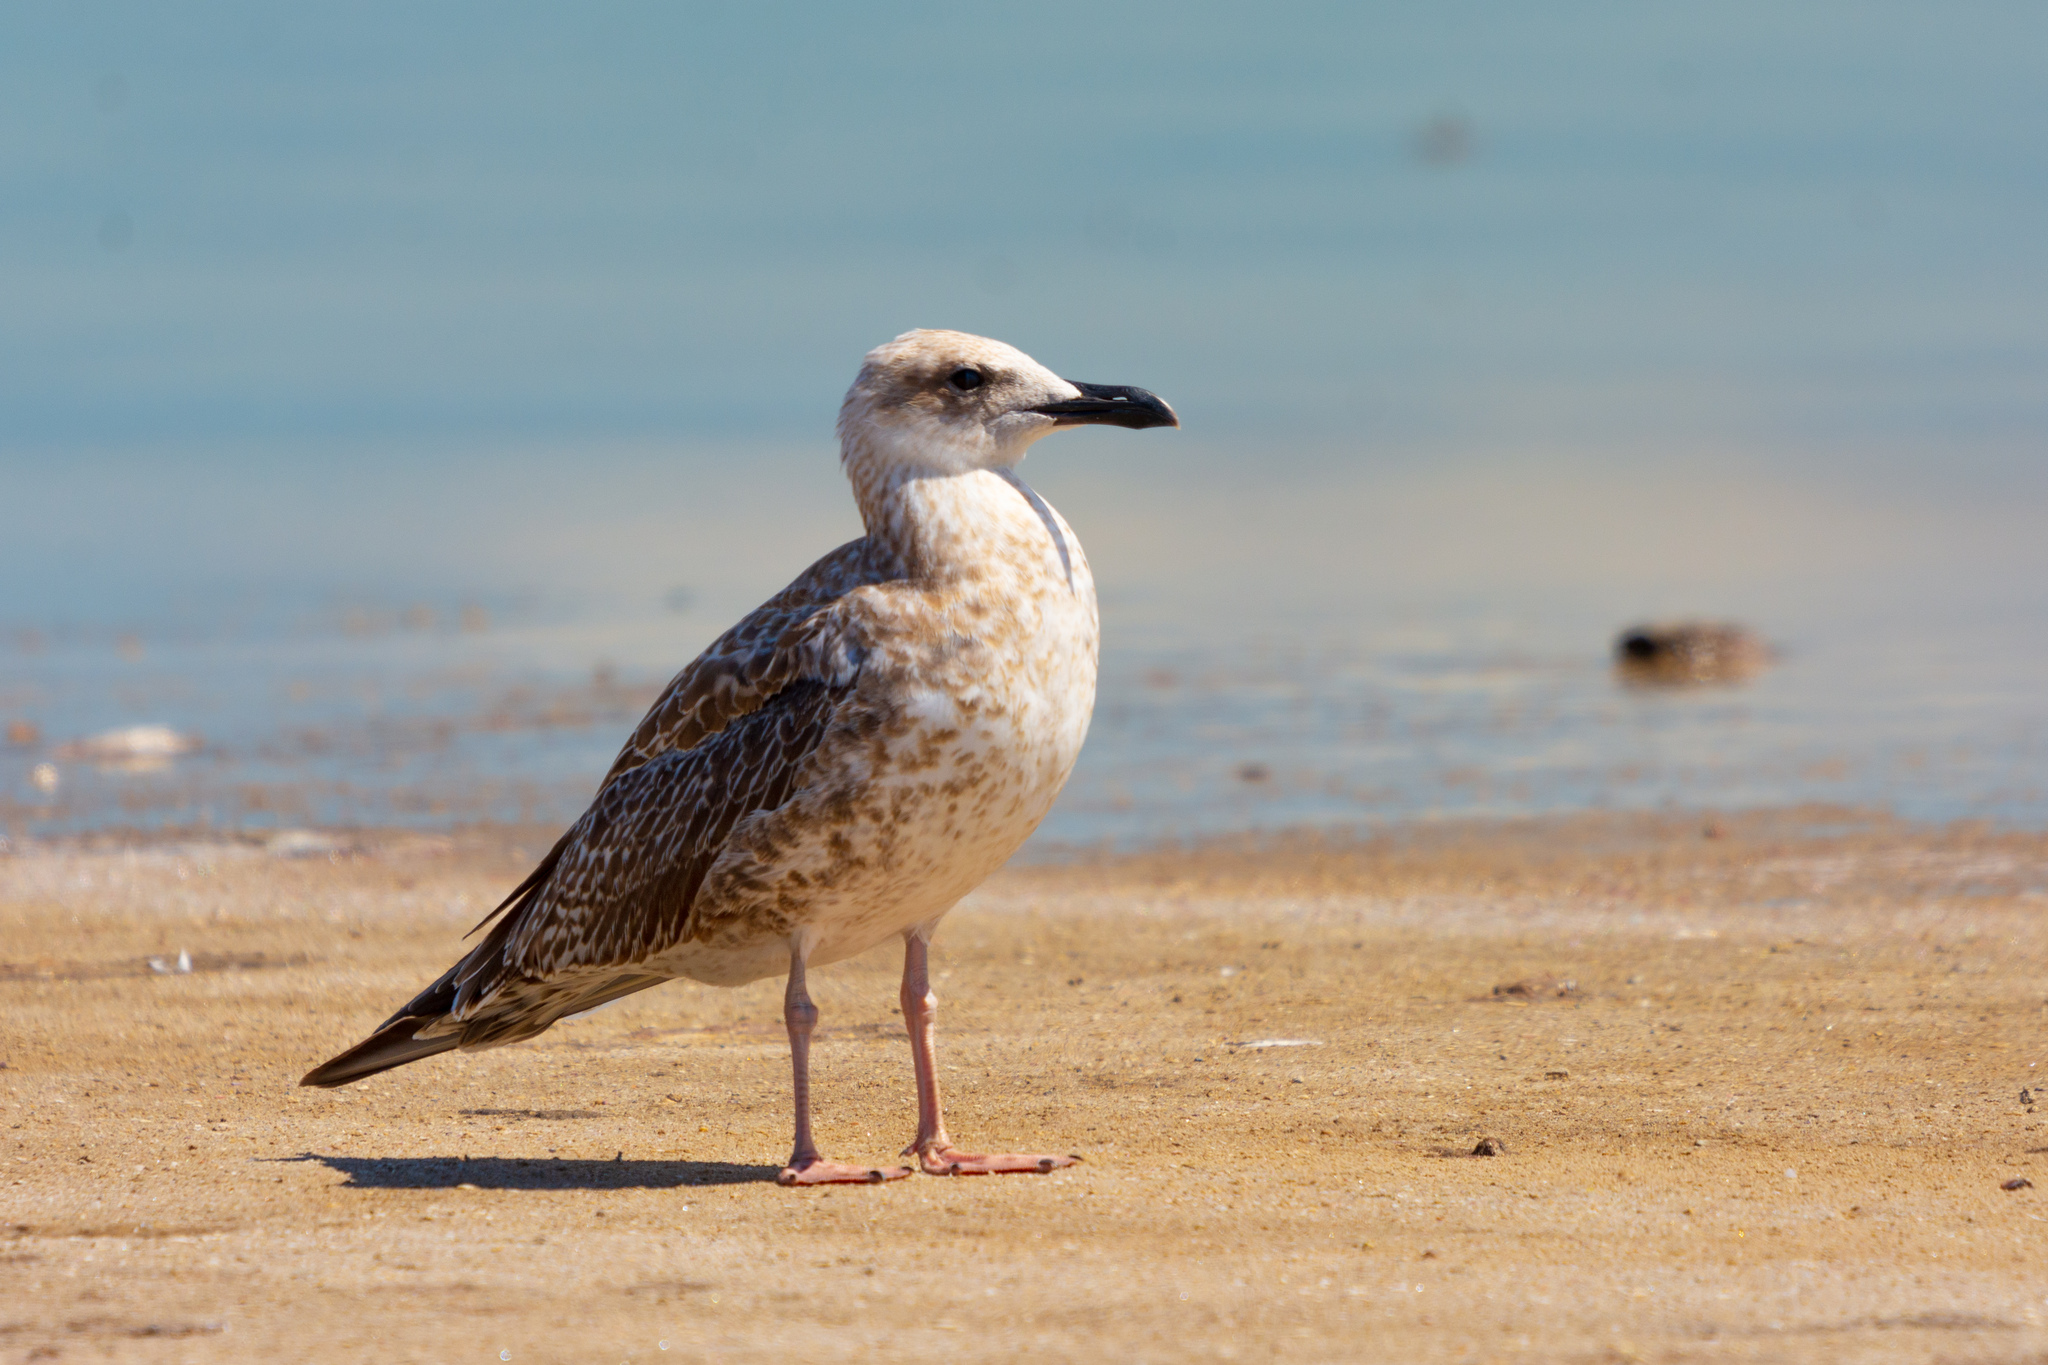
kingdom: Animalia
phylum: Chordata
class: Aves
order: Charadriiformes
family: Laridae
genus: Larus
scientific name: Larus michahellis
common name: Yellow-legged gull
